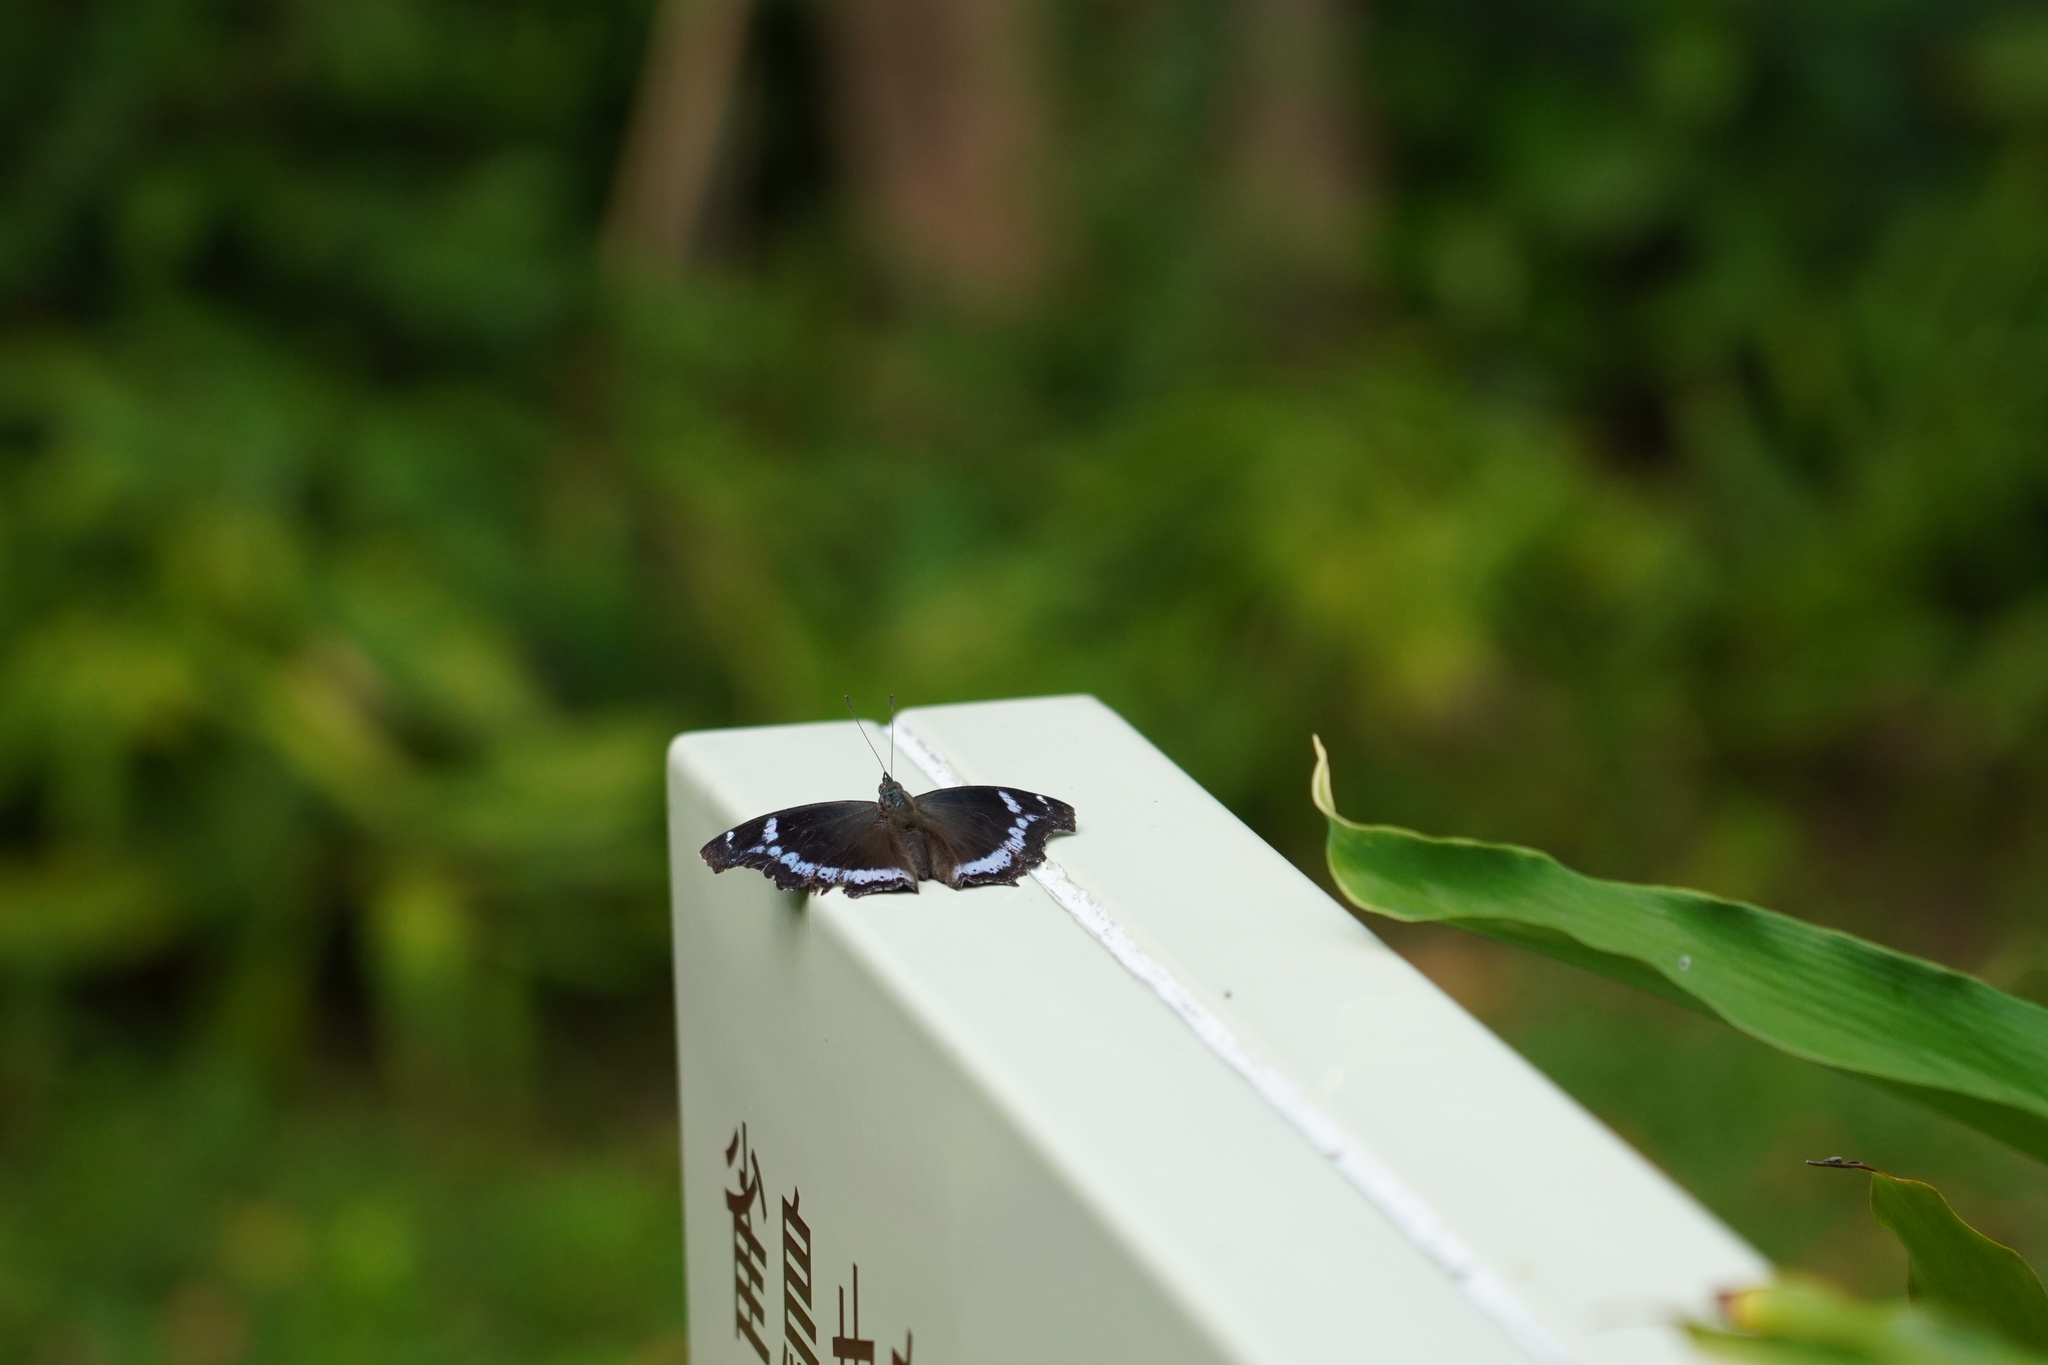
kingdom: Animalia
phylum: Arthropoda
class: Insecta
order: Lepidoptera
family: Nymphalidae
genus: Vanessa
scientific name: Vanessa Kaniska canace
